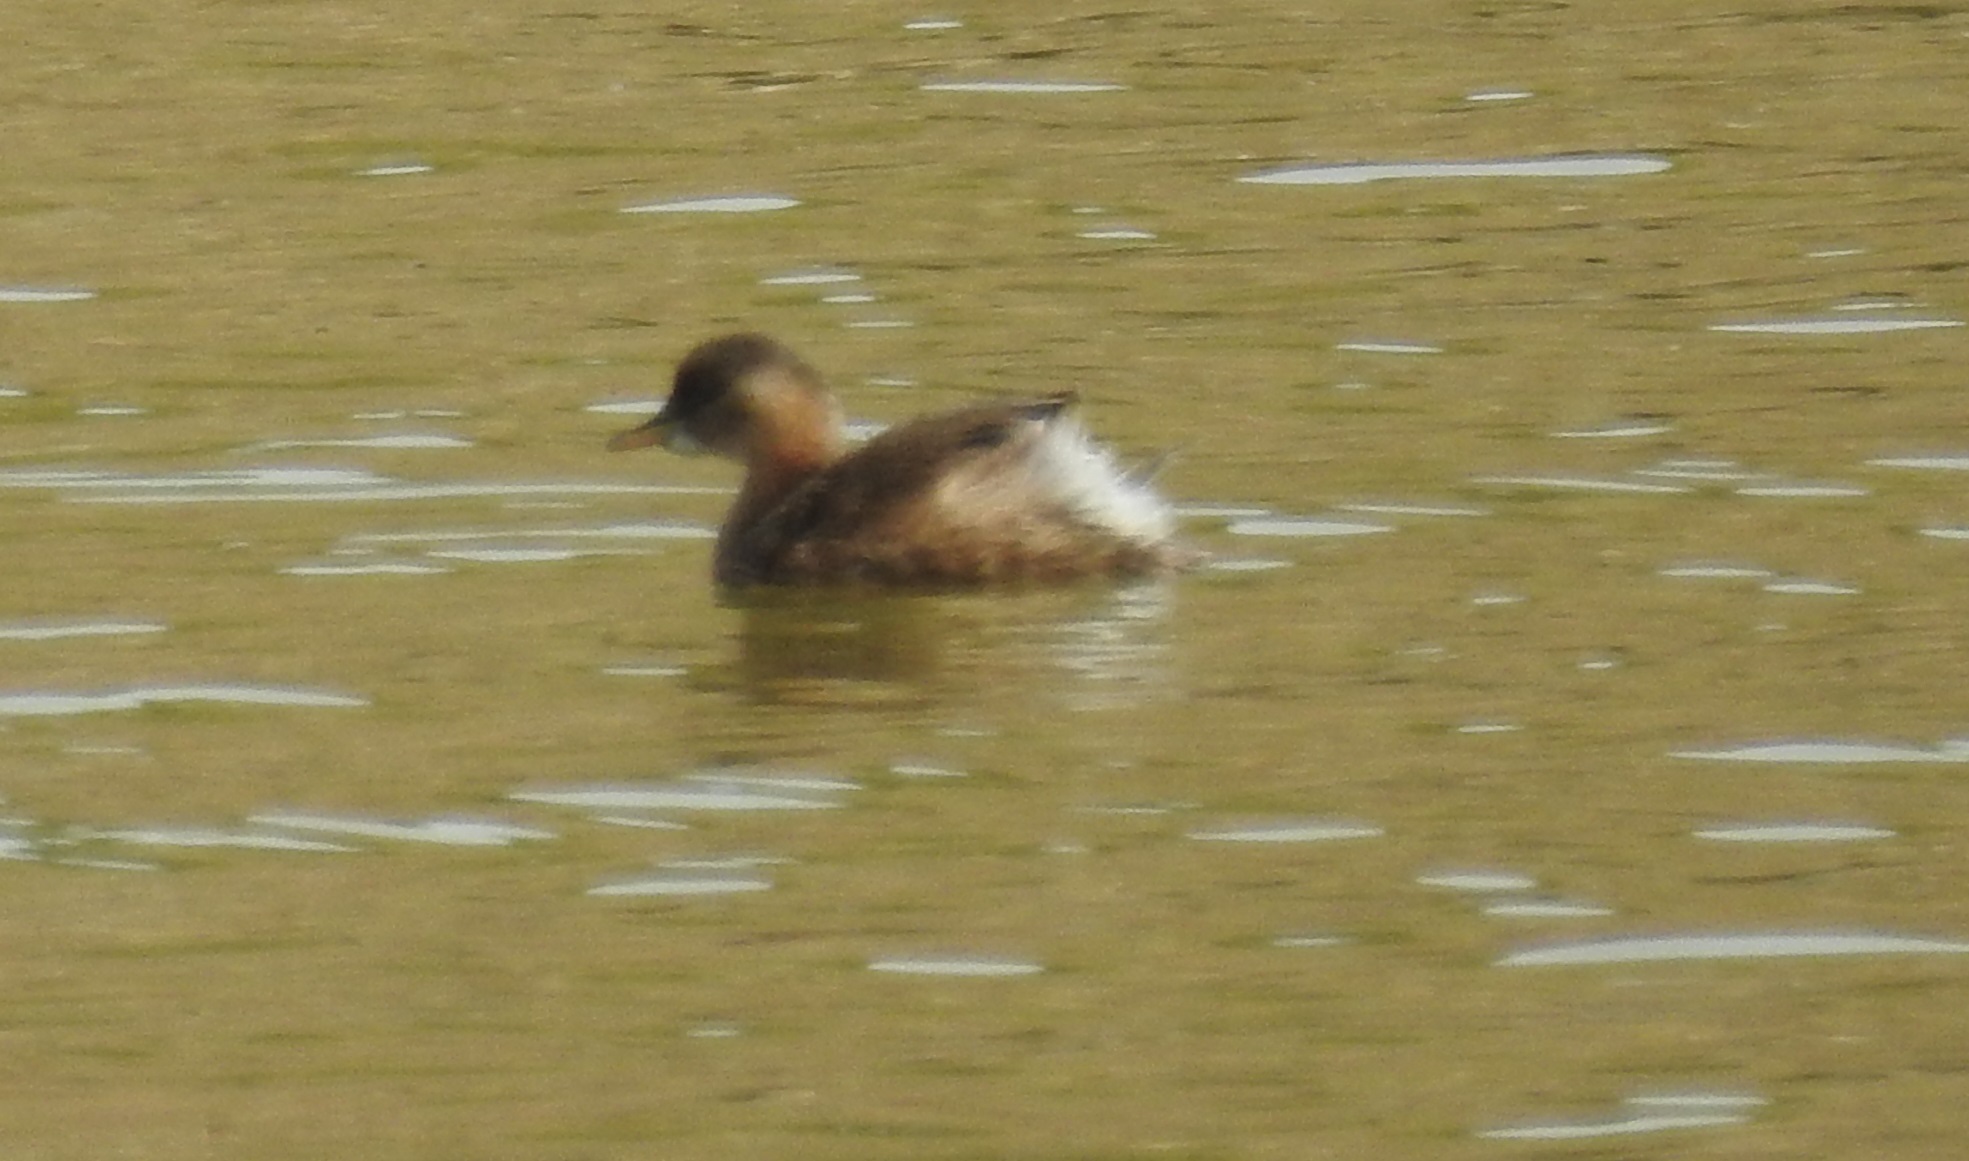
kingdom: Animalia
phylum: Chordata
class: Aves
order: Podicipediformes
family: Podicipedidae
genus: Tachybaptus
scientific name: Tachybaptus ruficollis
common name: Little grebe
